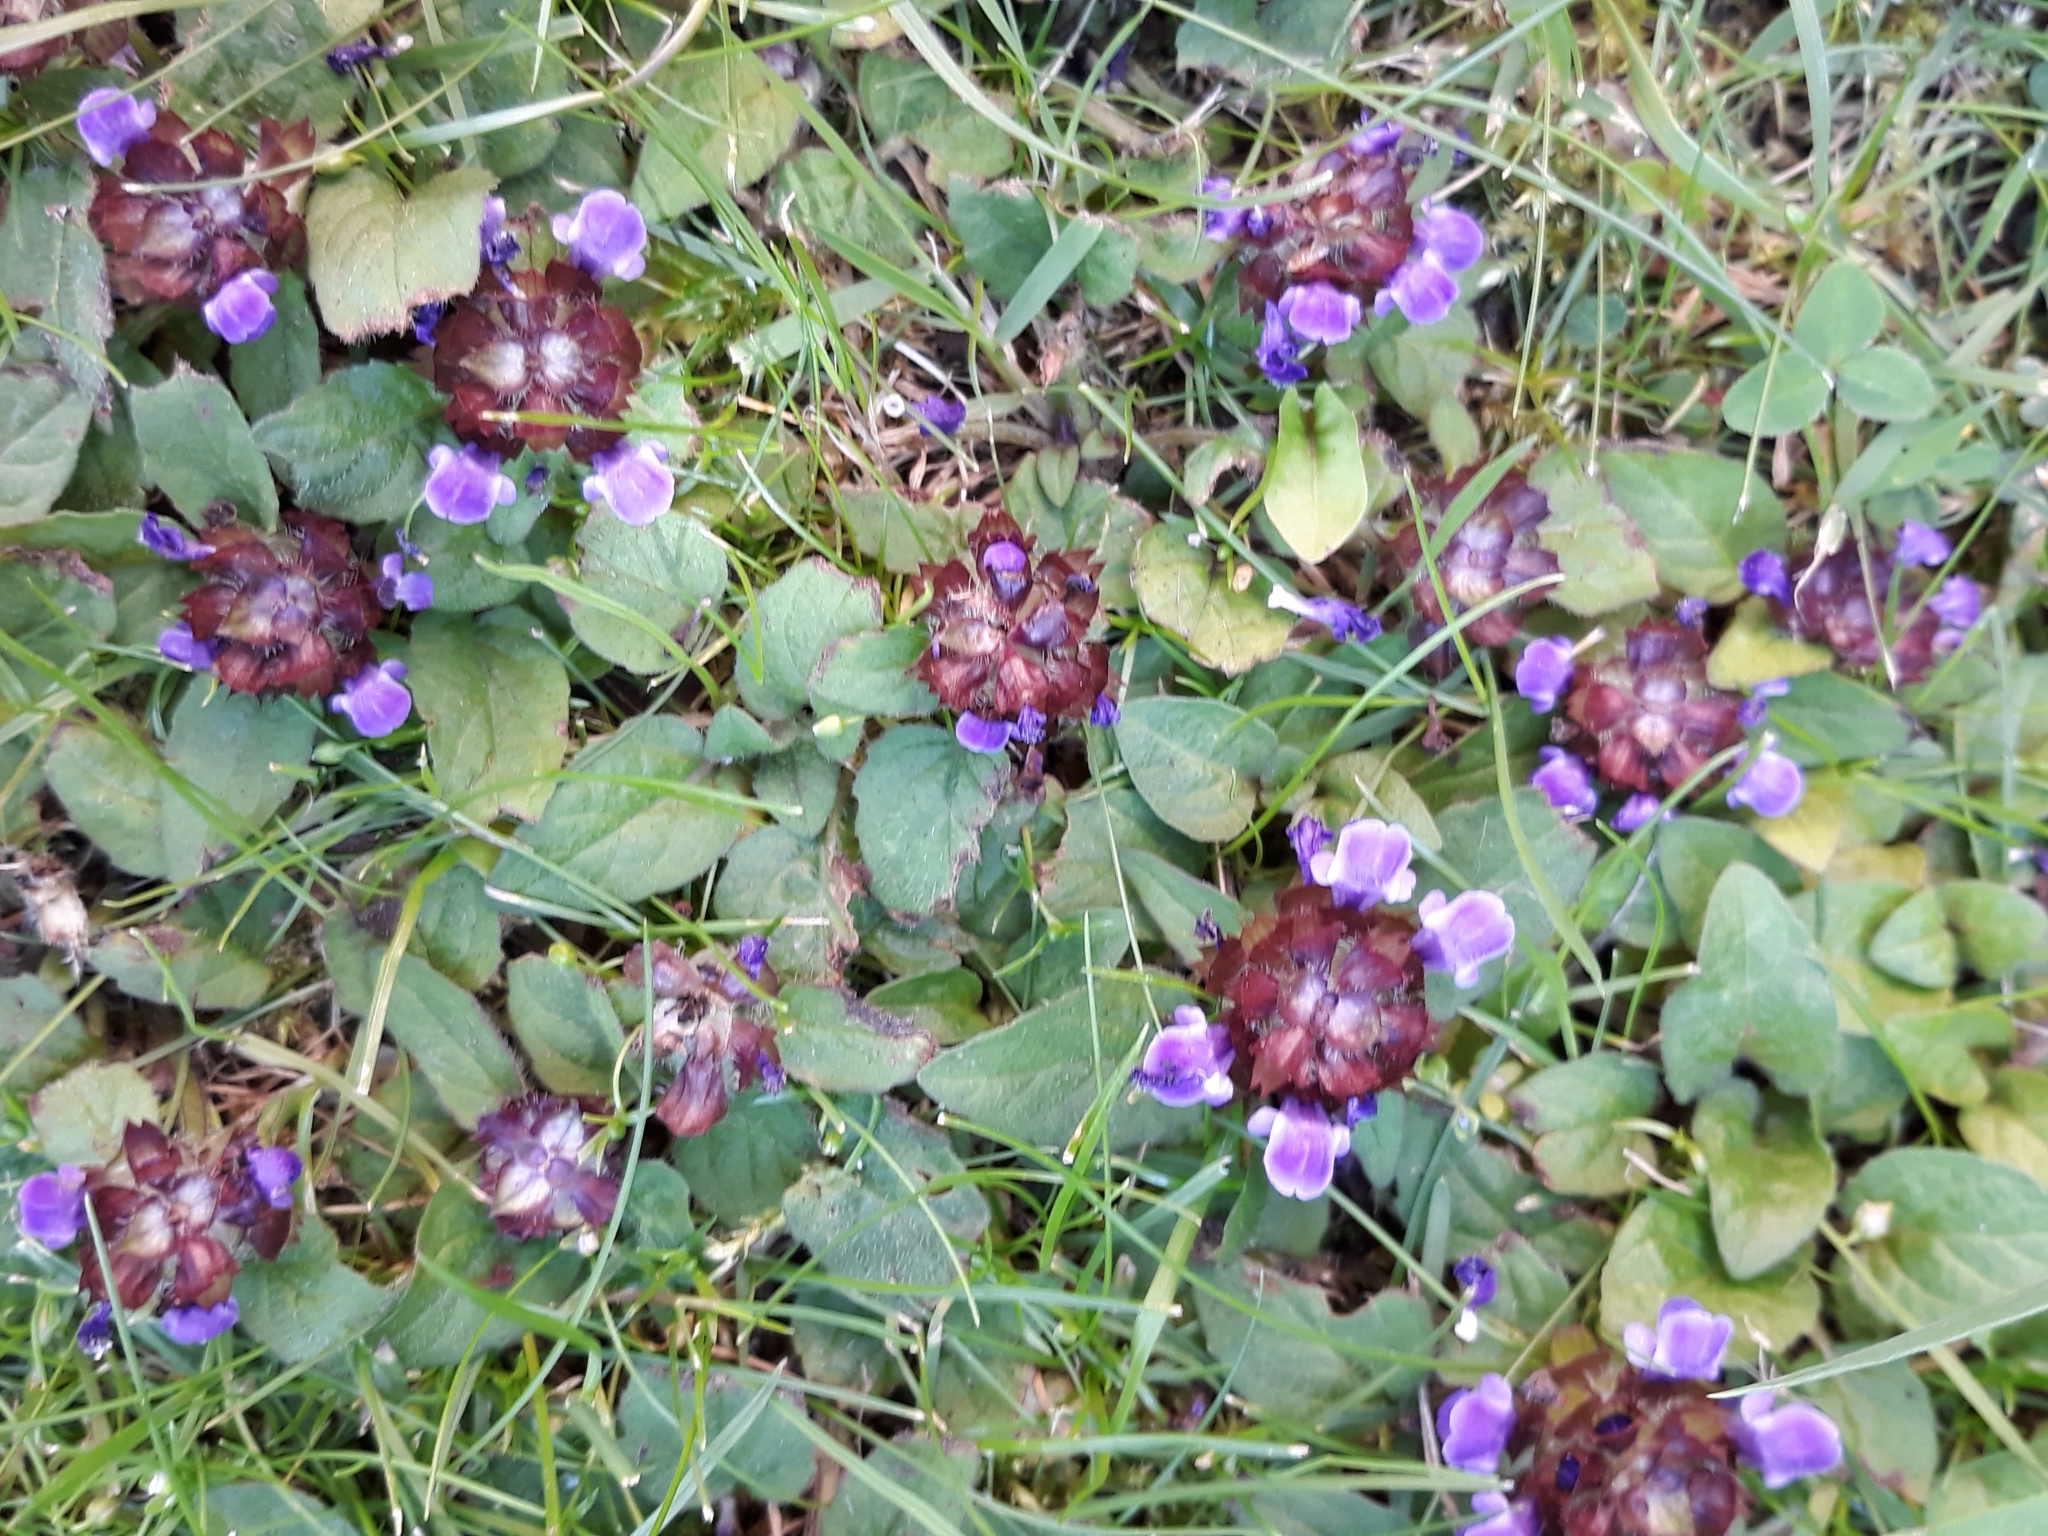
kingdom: Plantae
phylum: Tracheophyta
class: Magnoliopsida
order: Lamiales
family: Lamiaceae
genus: Prunella
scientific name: Prunella vulgaris
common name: Heal-all
